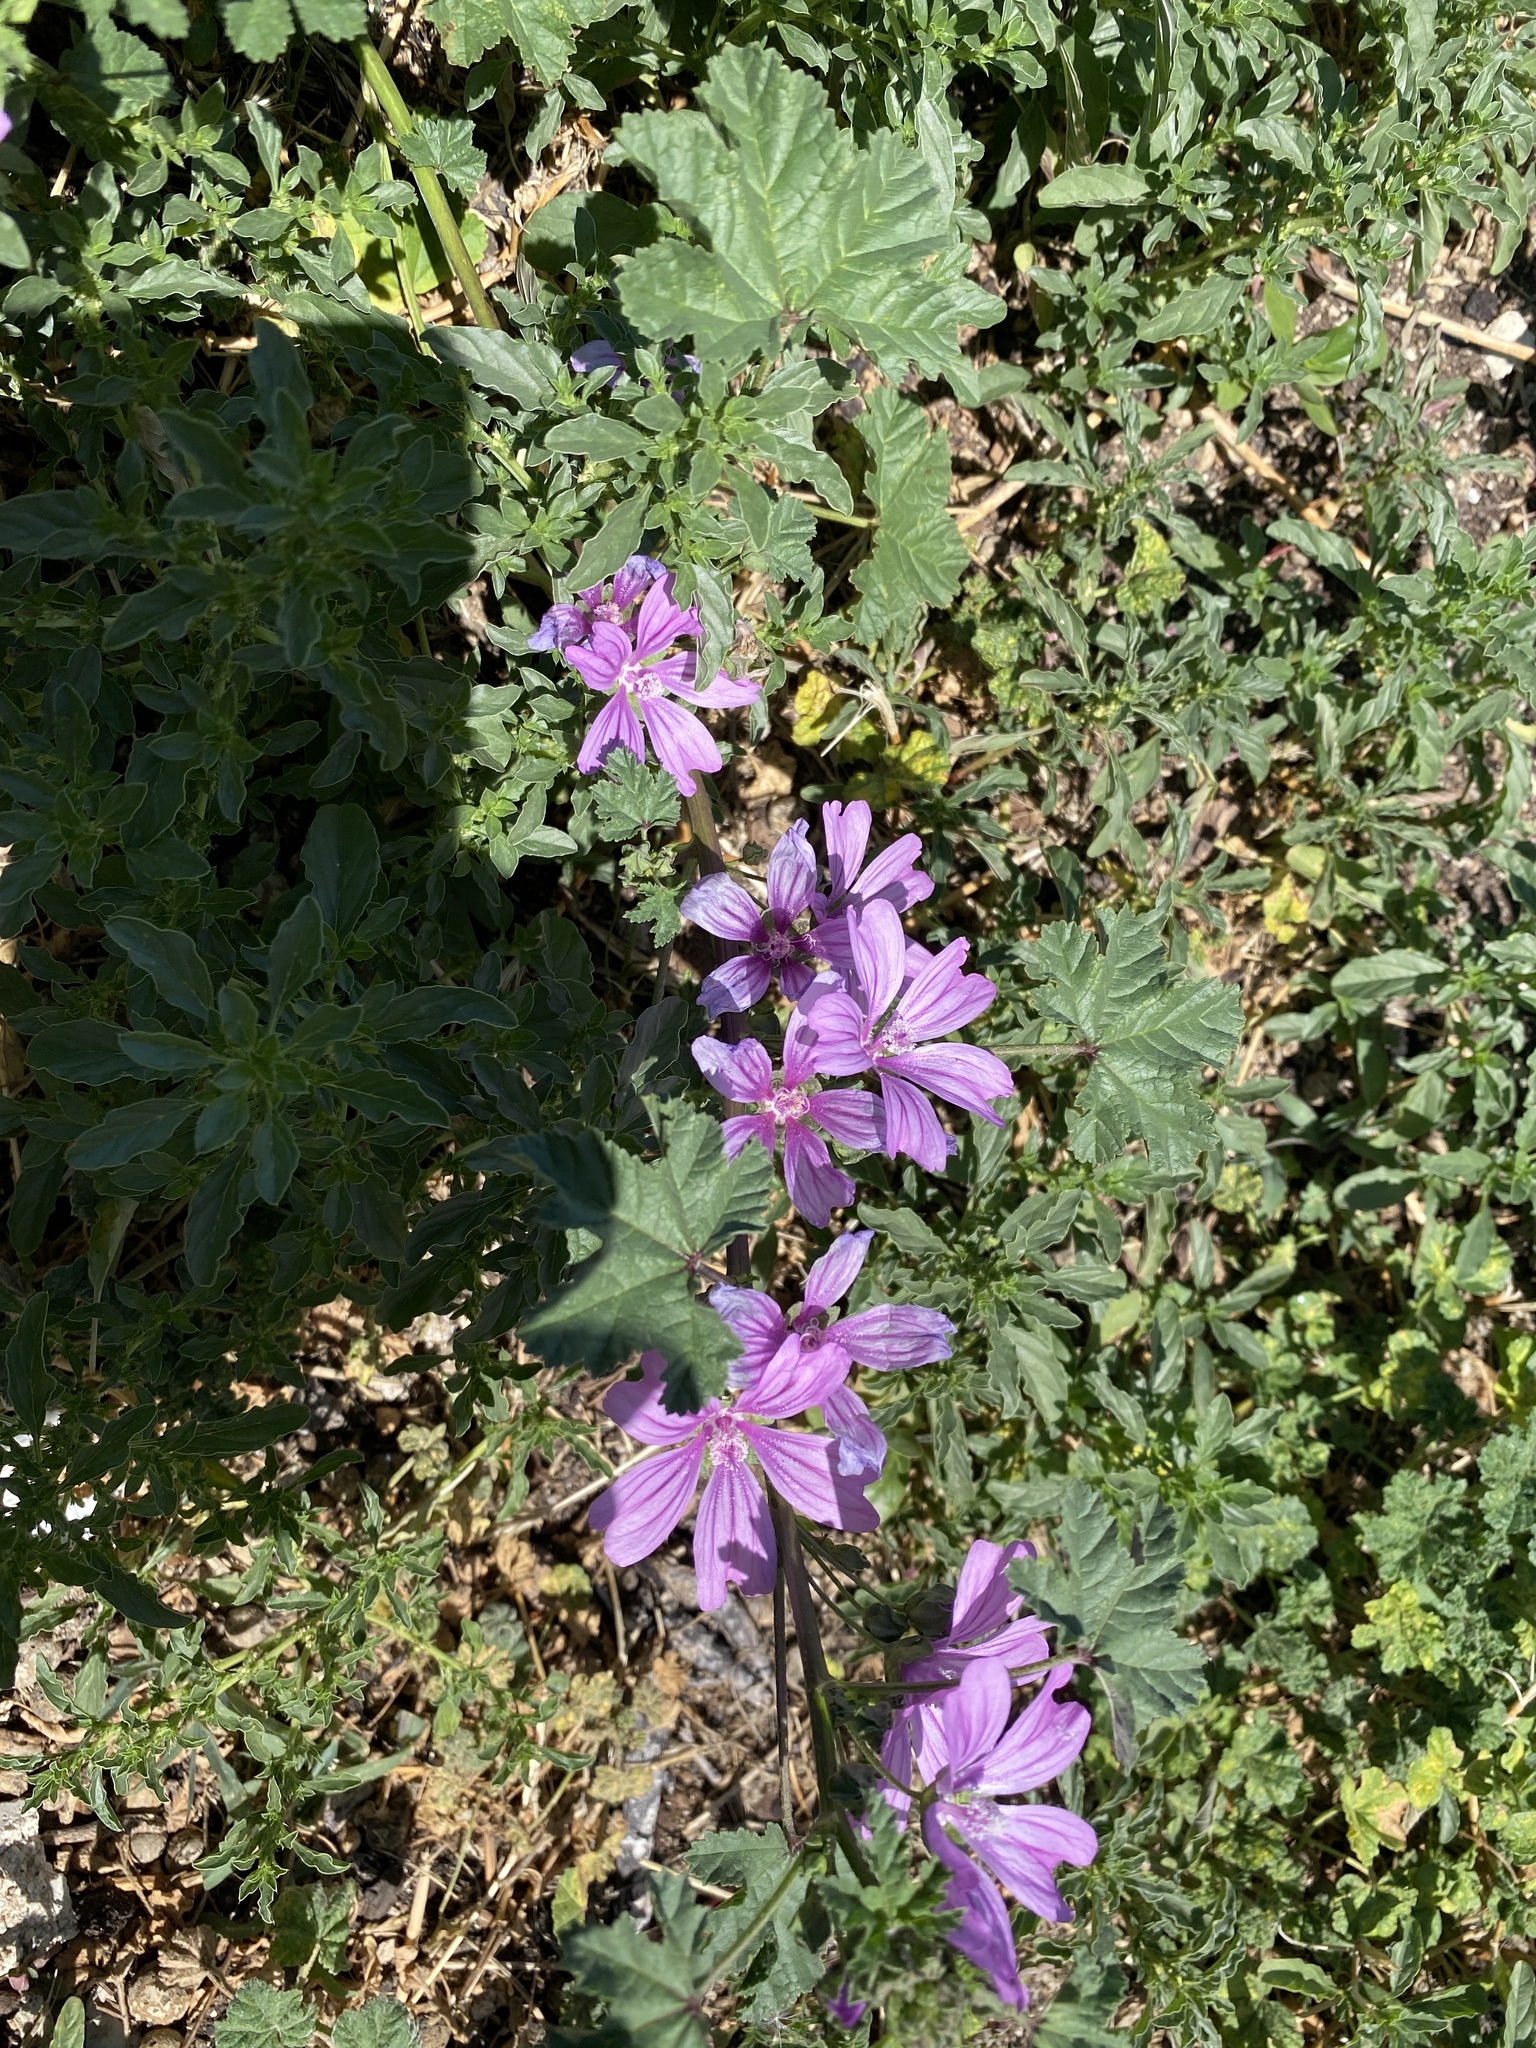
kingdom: Plantae
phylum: Tracheophyta
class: Magnoliopsida
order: Malvales
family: Malvaceae
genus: Malva
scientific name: Malva sylvestris
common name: Common mallow
